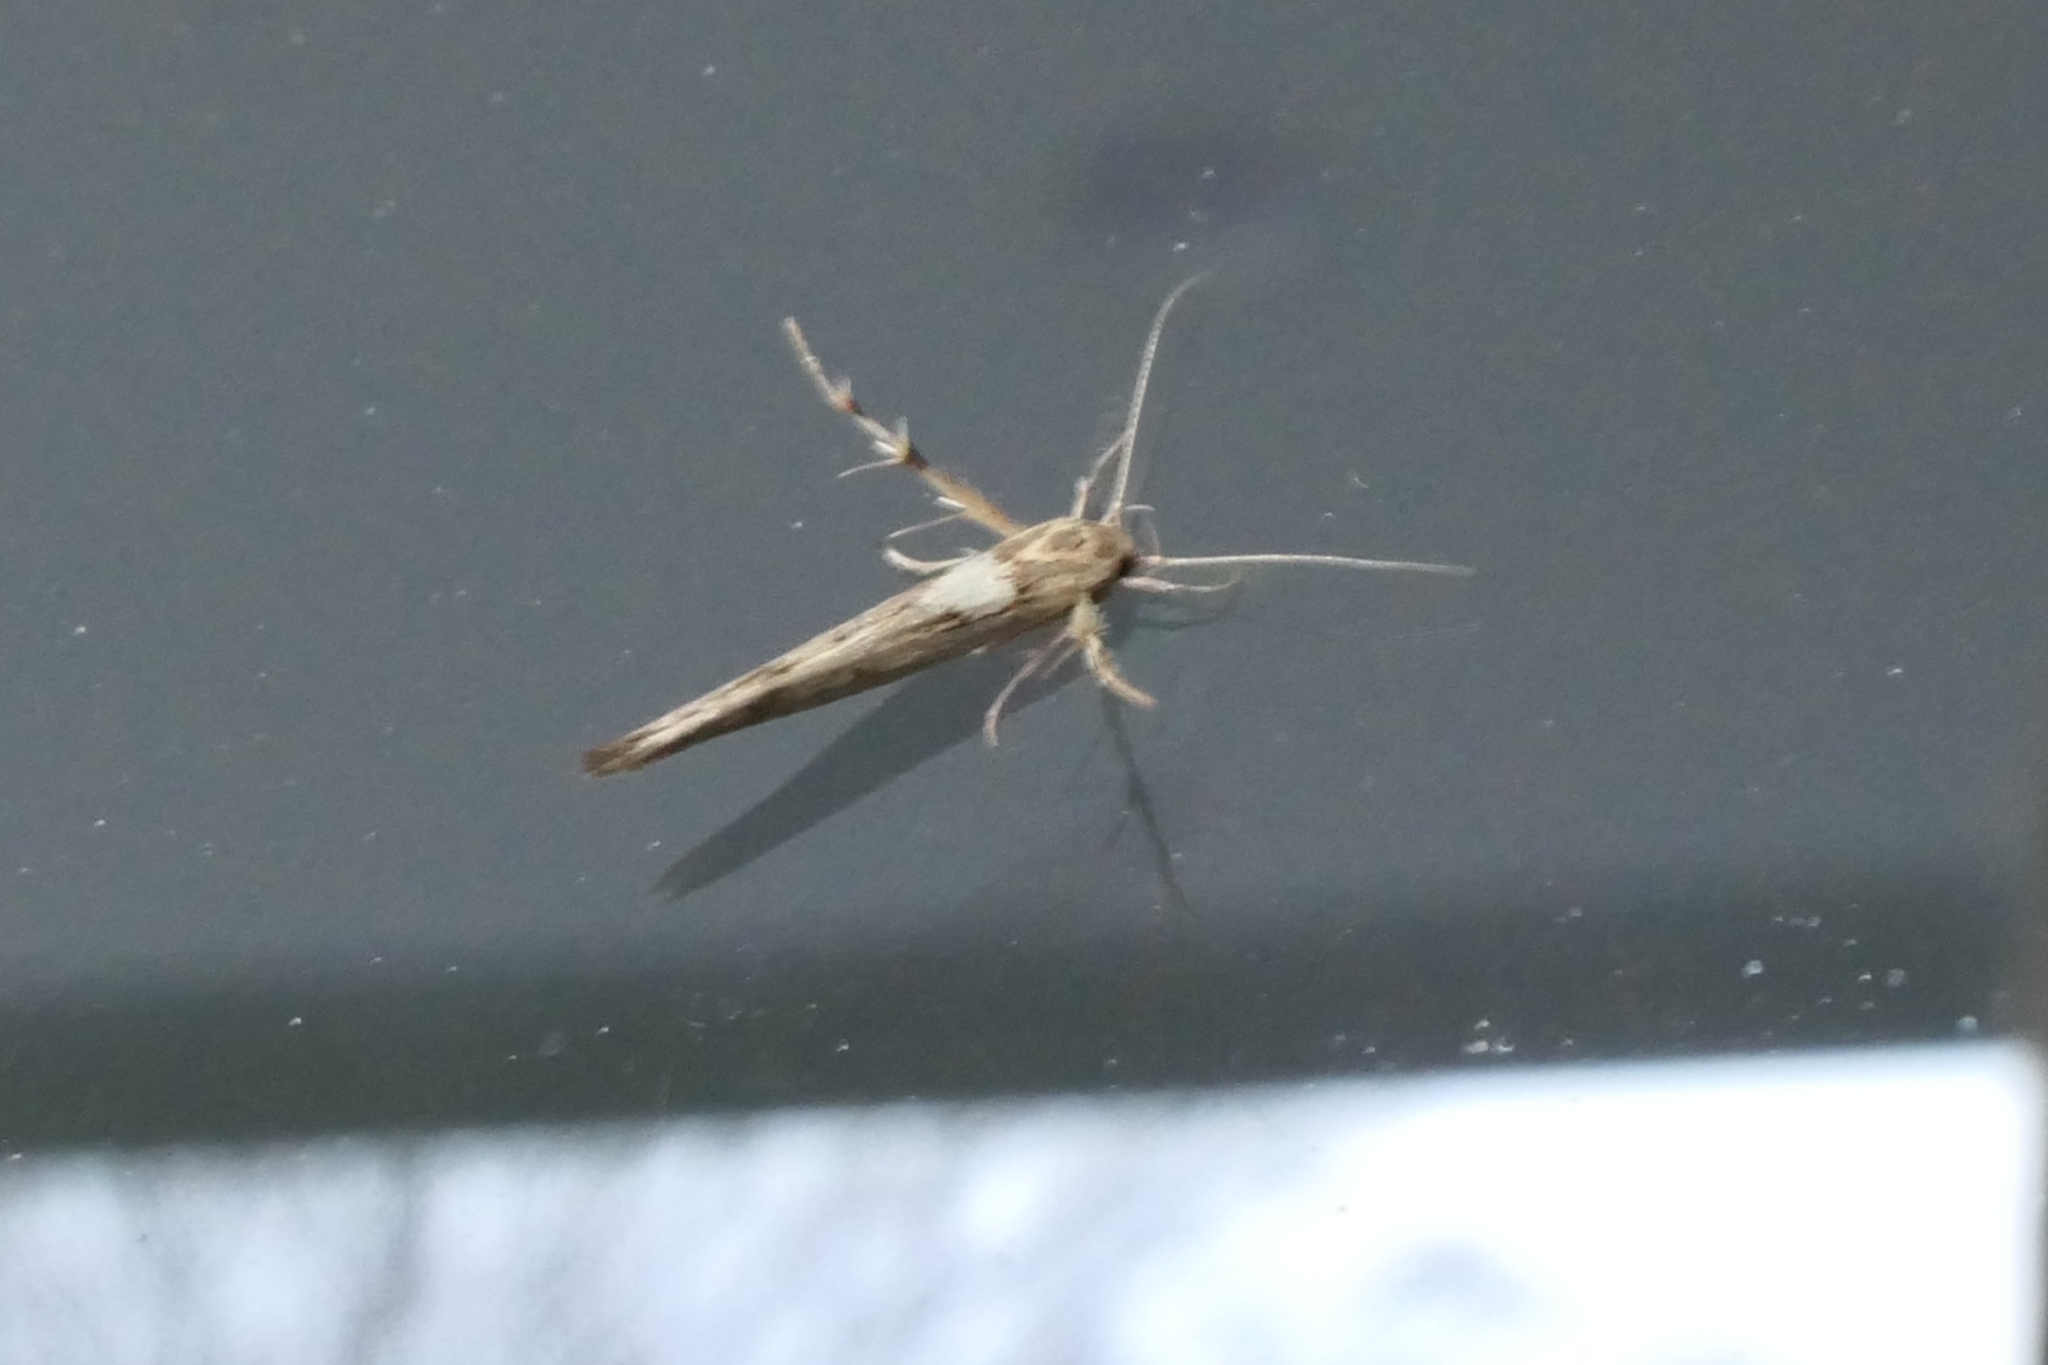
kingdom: Animalia
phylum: Arthropoda
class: Insecta
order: Lepidoptera
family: Stathmopodidae
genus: Stathmopoda
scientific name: Stathmopoda plumbiflua
